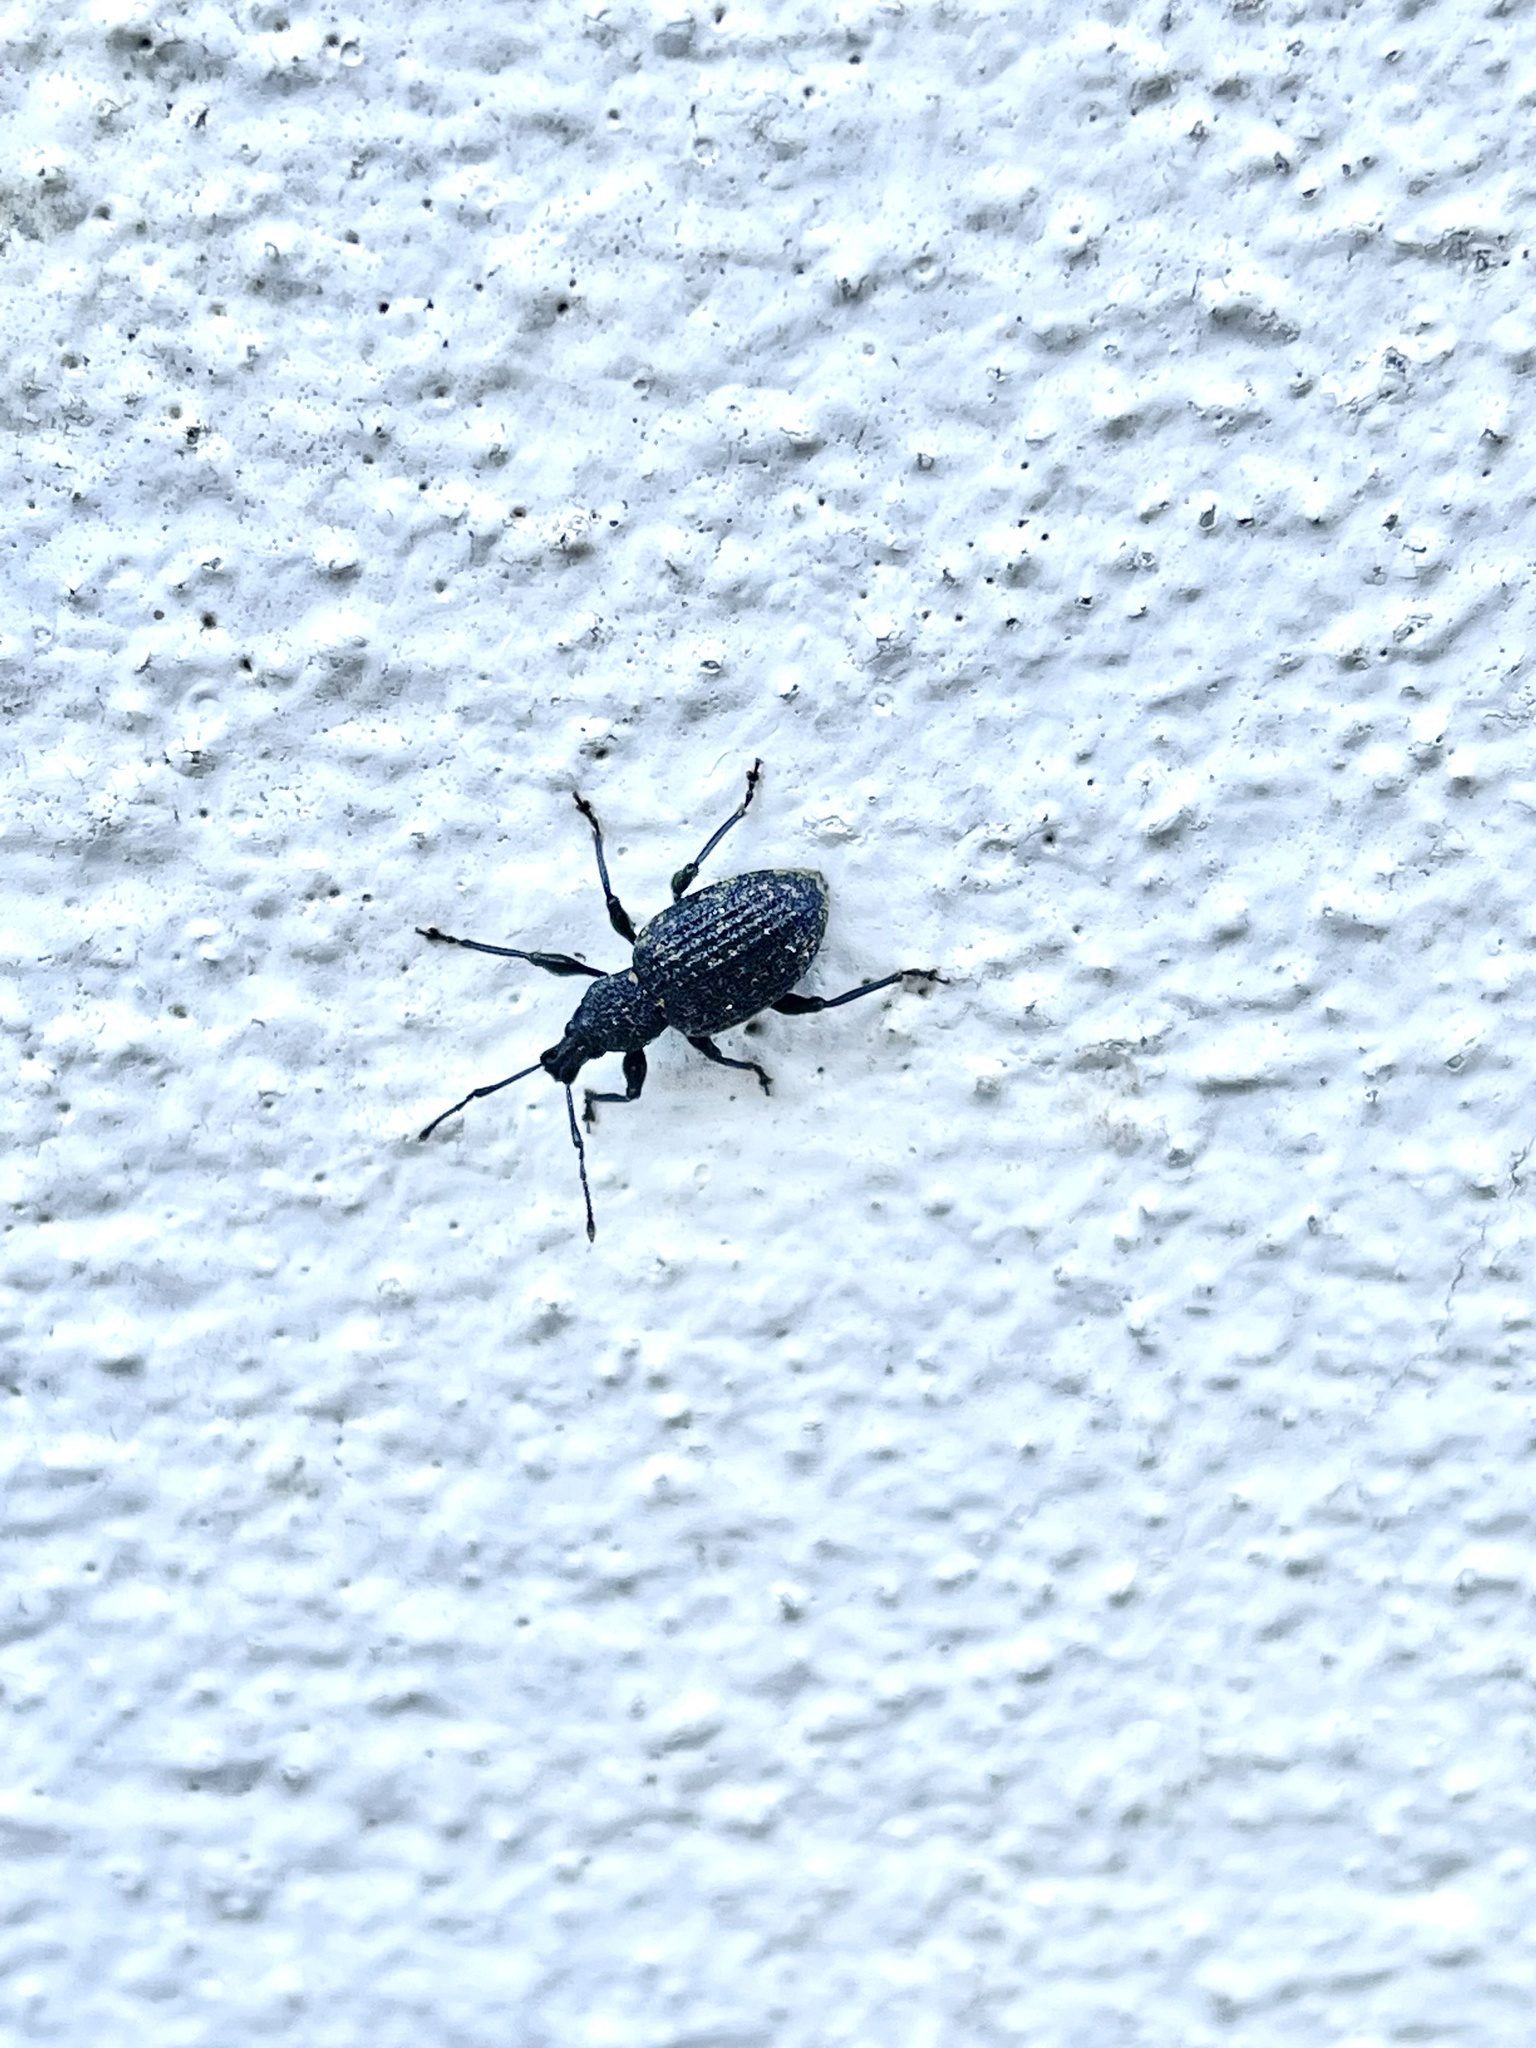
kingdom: Animalia
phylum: Arthropoda
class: Insecta
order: Coleoptera
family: Curculionidae
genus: Otiorhynchus
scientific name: Otiorhynchus sulcatus
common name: Black vine weevil
